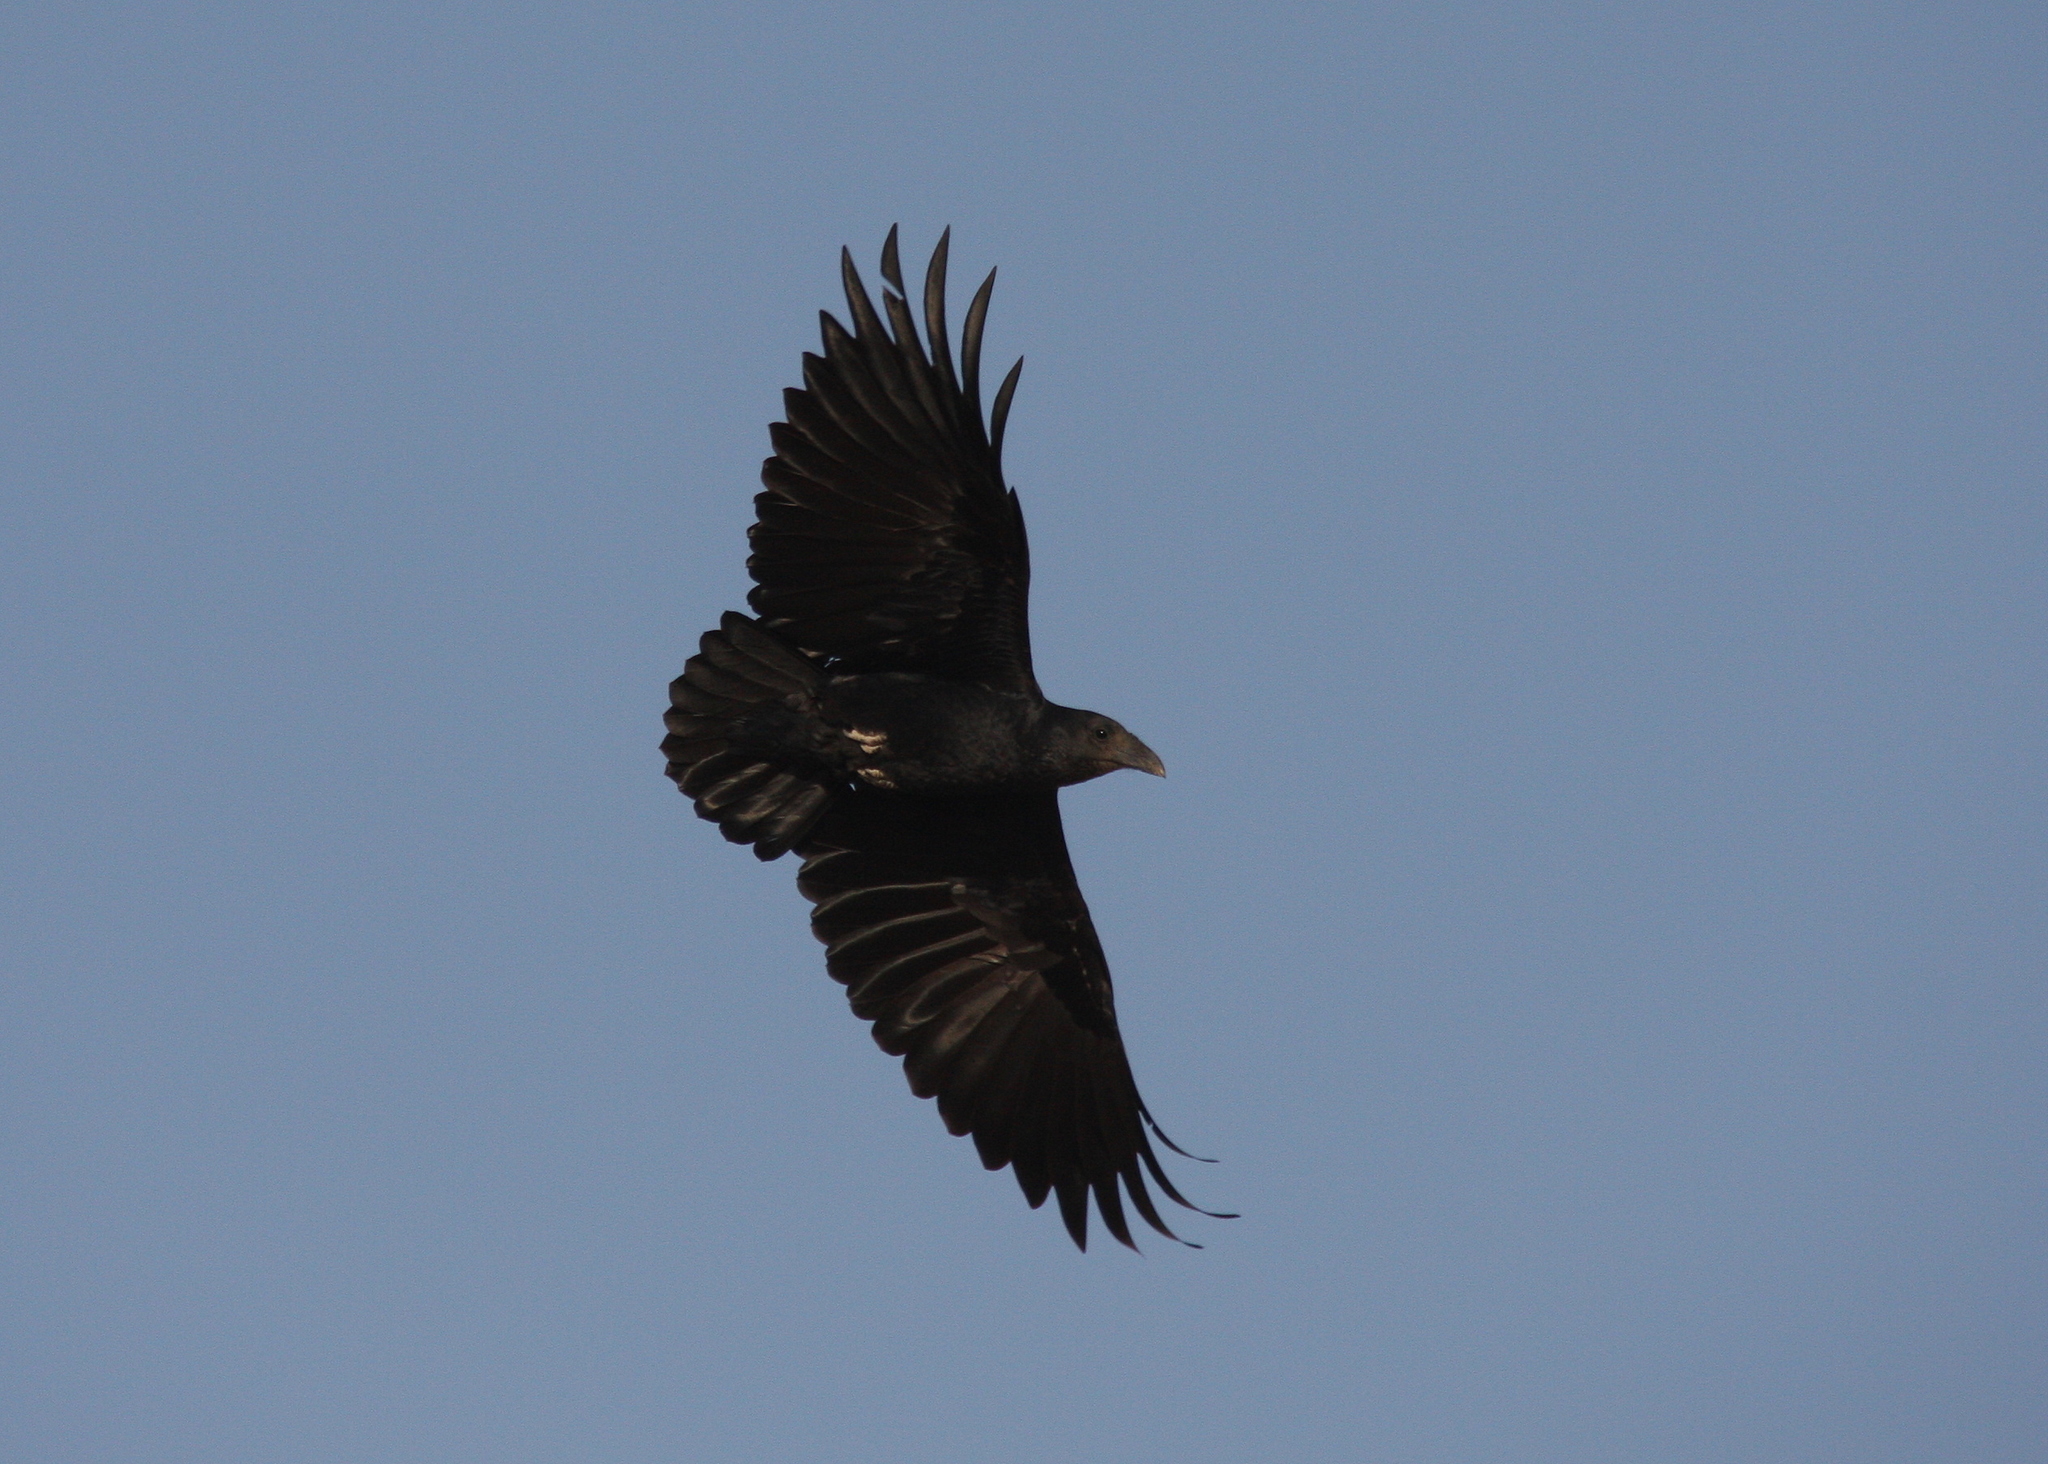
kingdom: Animalia
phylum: Chordata
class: Aves
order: Passeriformes
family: Corvidae
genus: Corvus
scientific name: Corvus rhipidurus
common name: Fan-tailed raven
